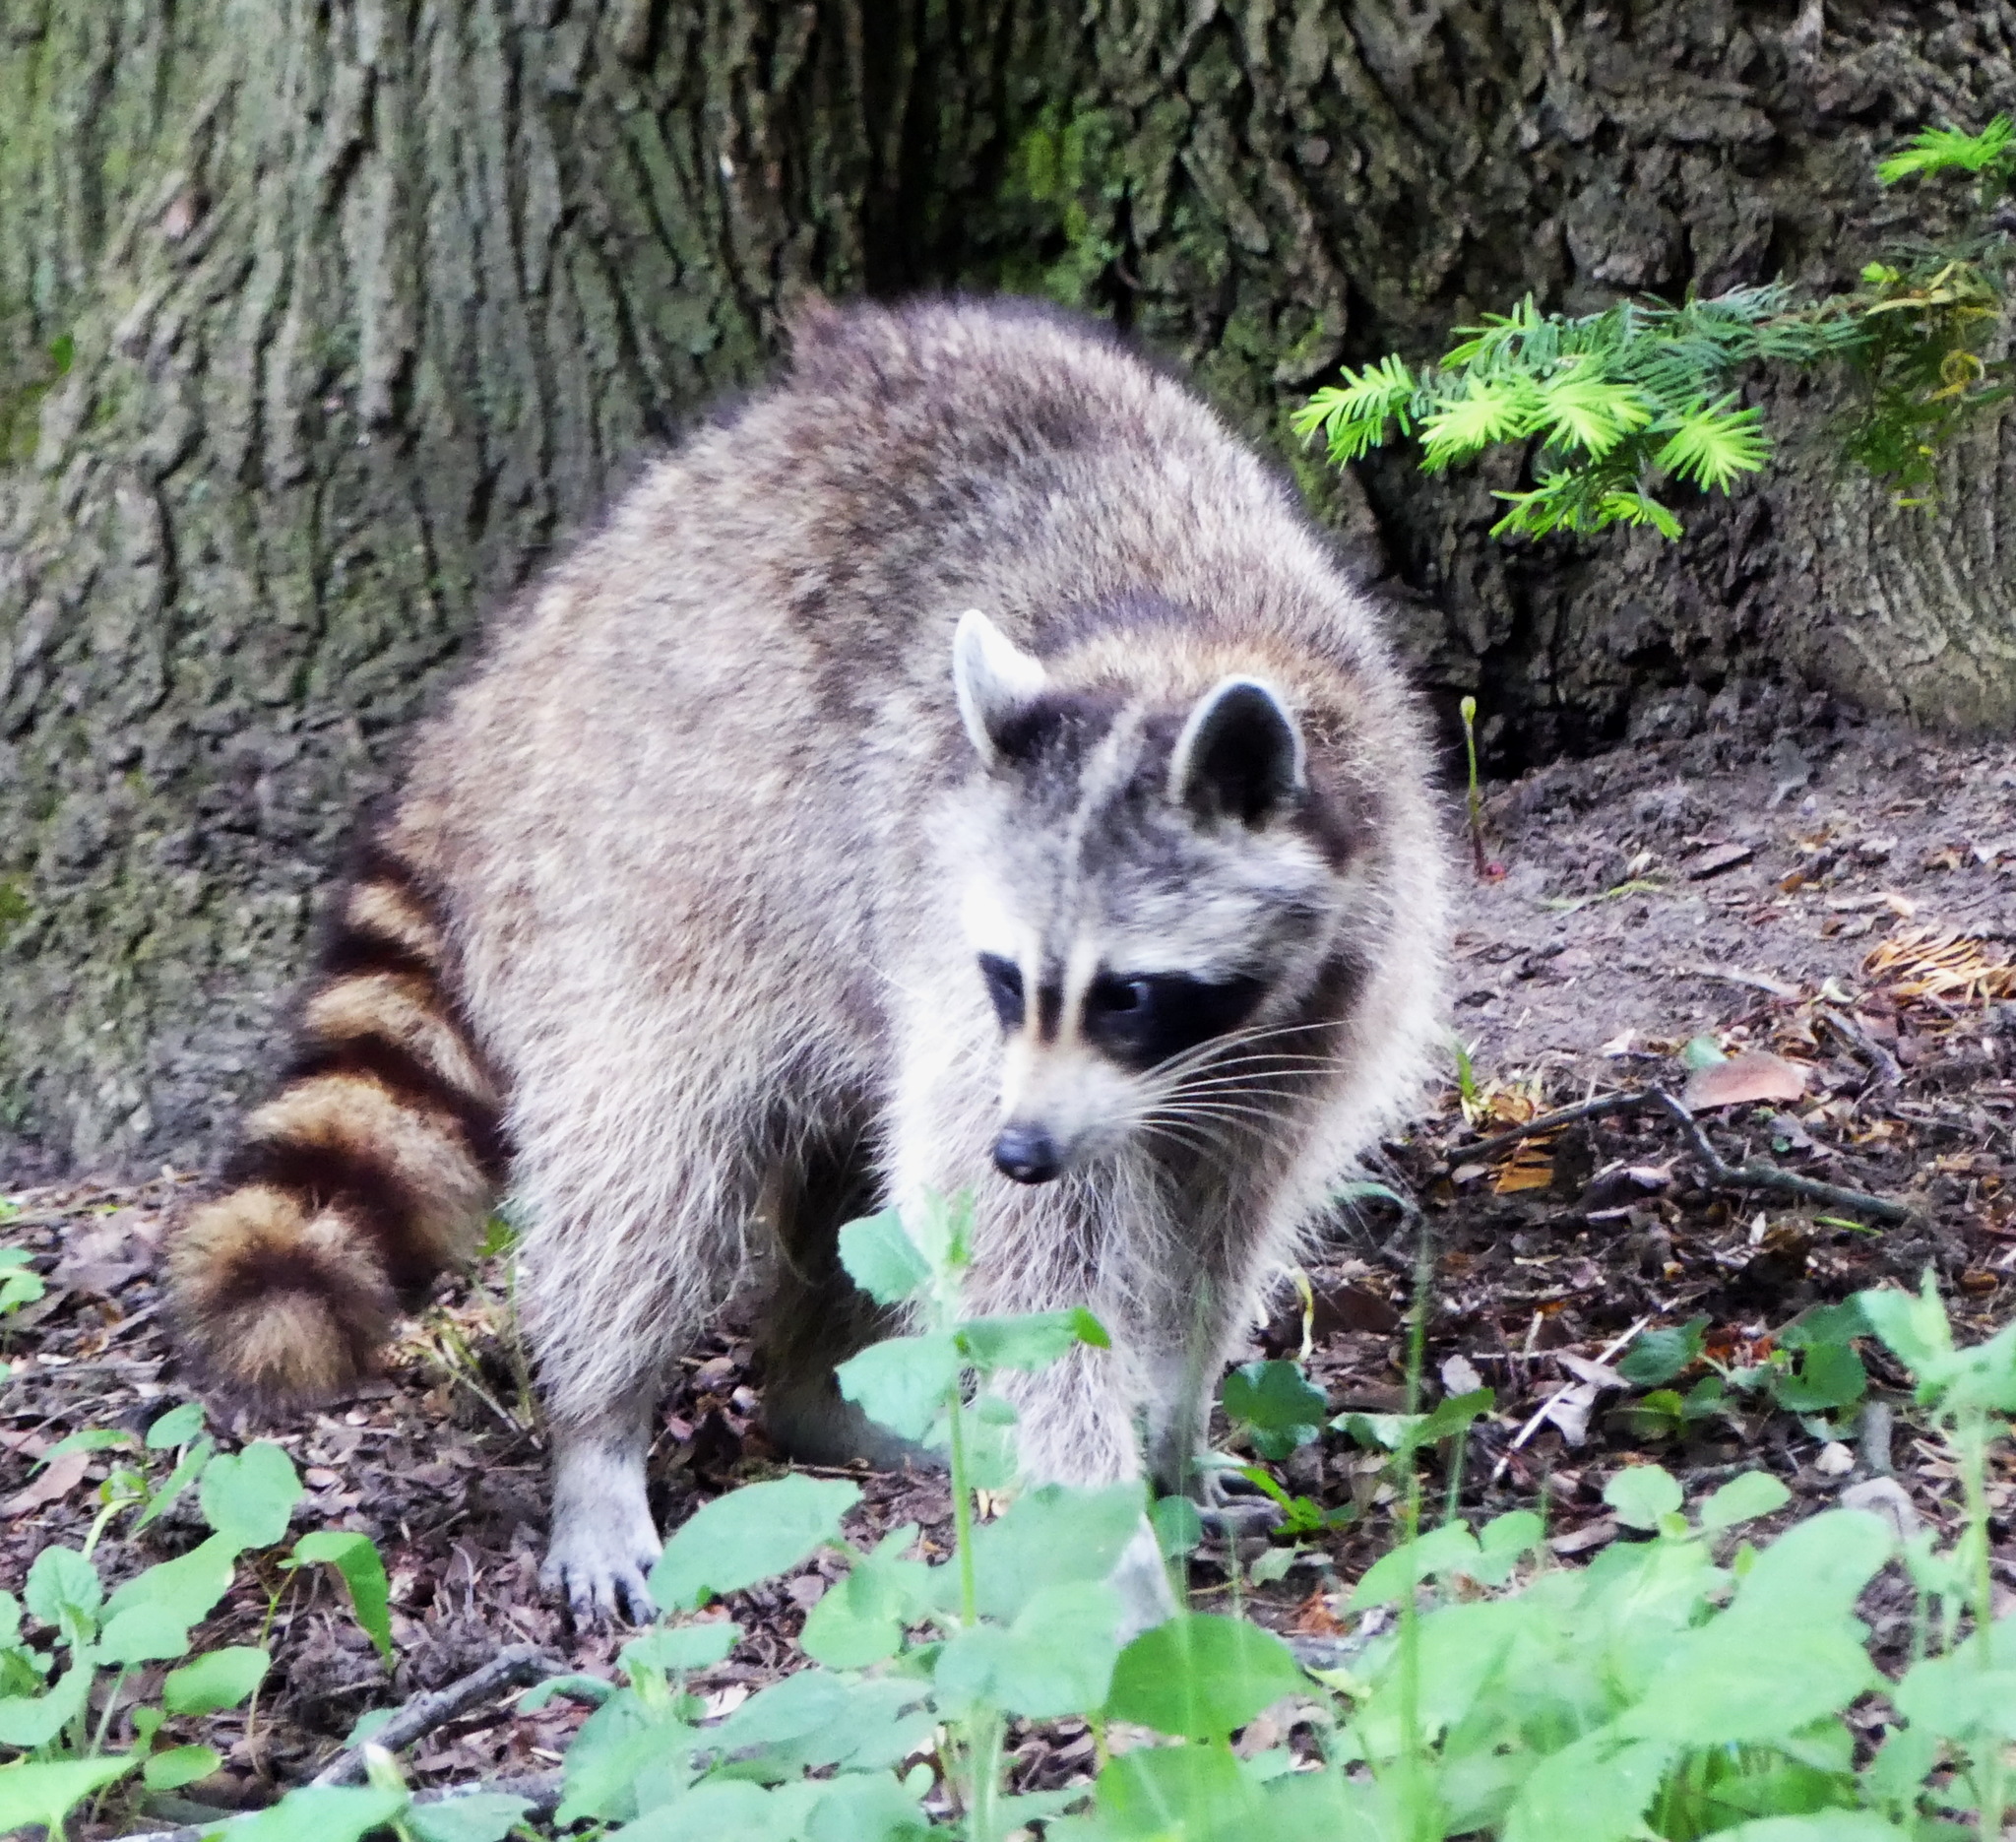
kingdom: Animalia
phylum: Chordata
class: Mammalia
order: Carnivora
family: Procyonidae
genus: Procyon
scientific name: Procyon lotor
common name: Raccoon
